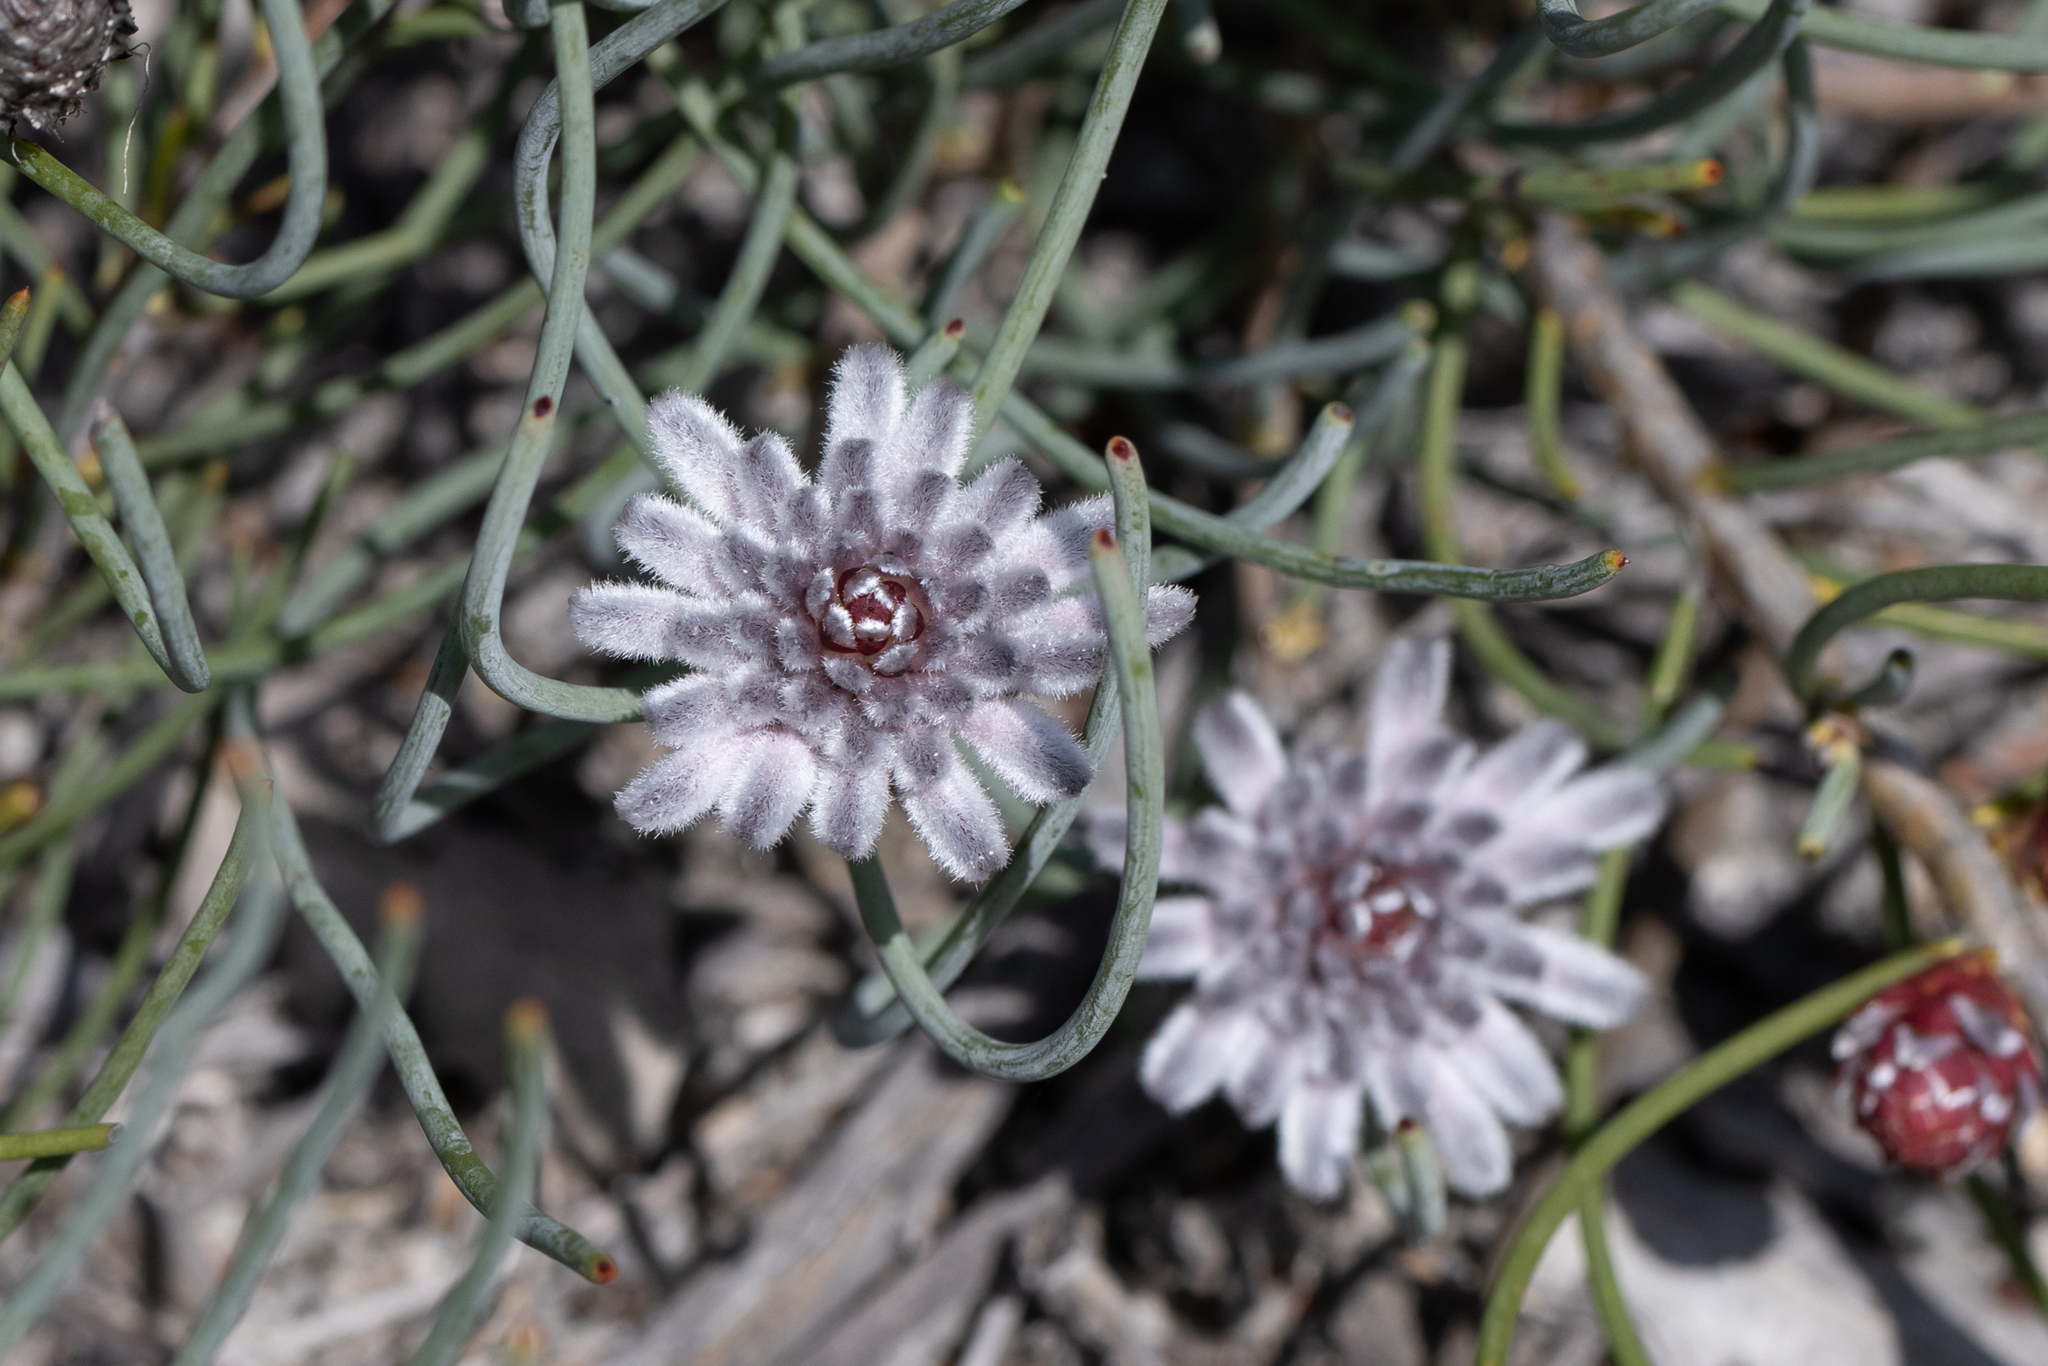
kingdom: Plantae
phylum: Tracheophyta
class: Magnoliopsida
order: Proteales
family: Proteaceae
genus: Petrophile
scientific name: Petrophile teretifolia
